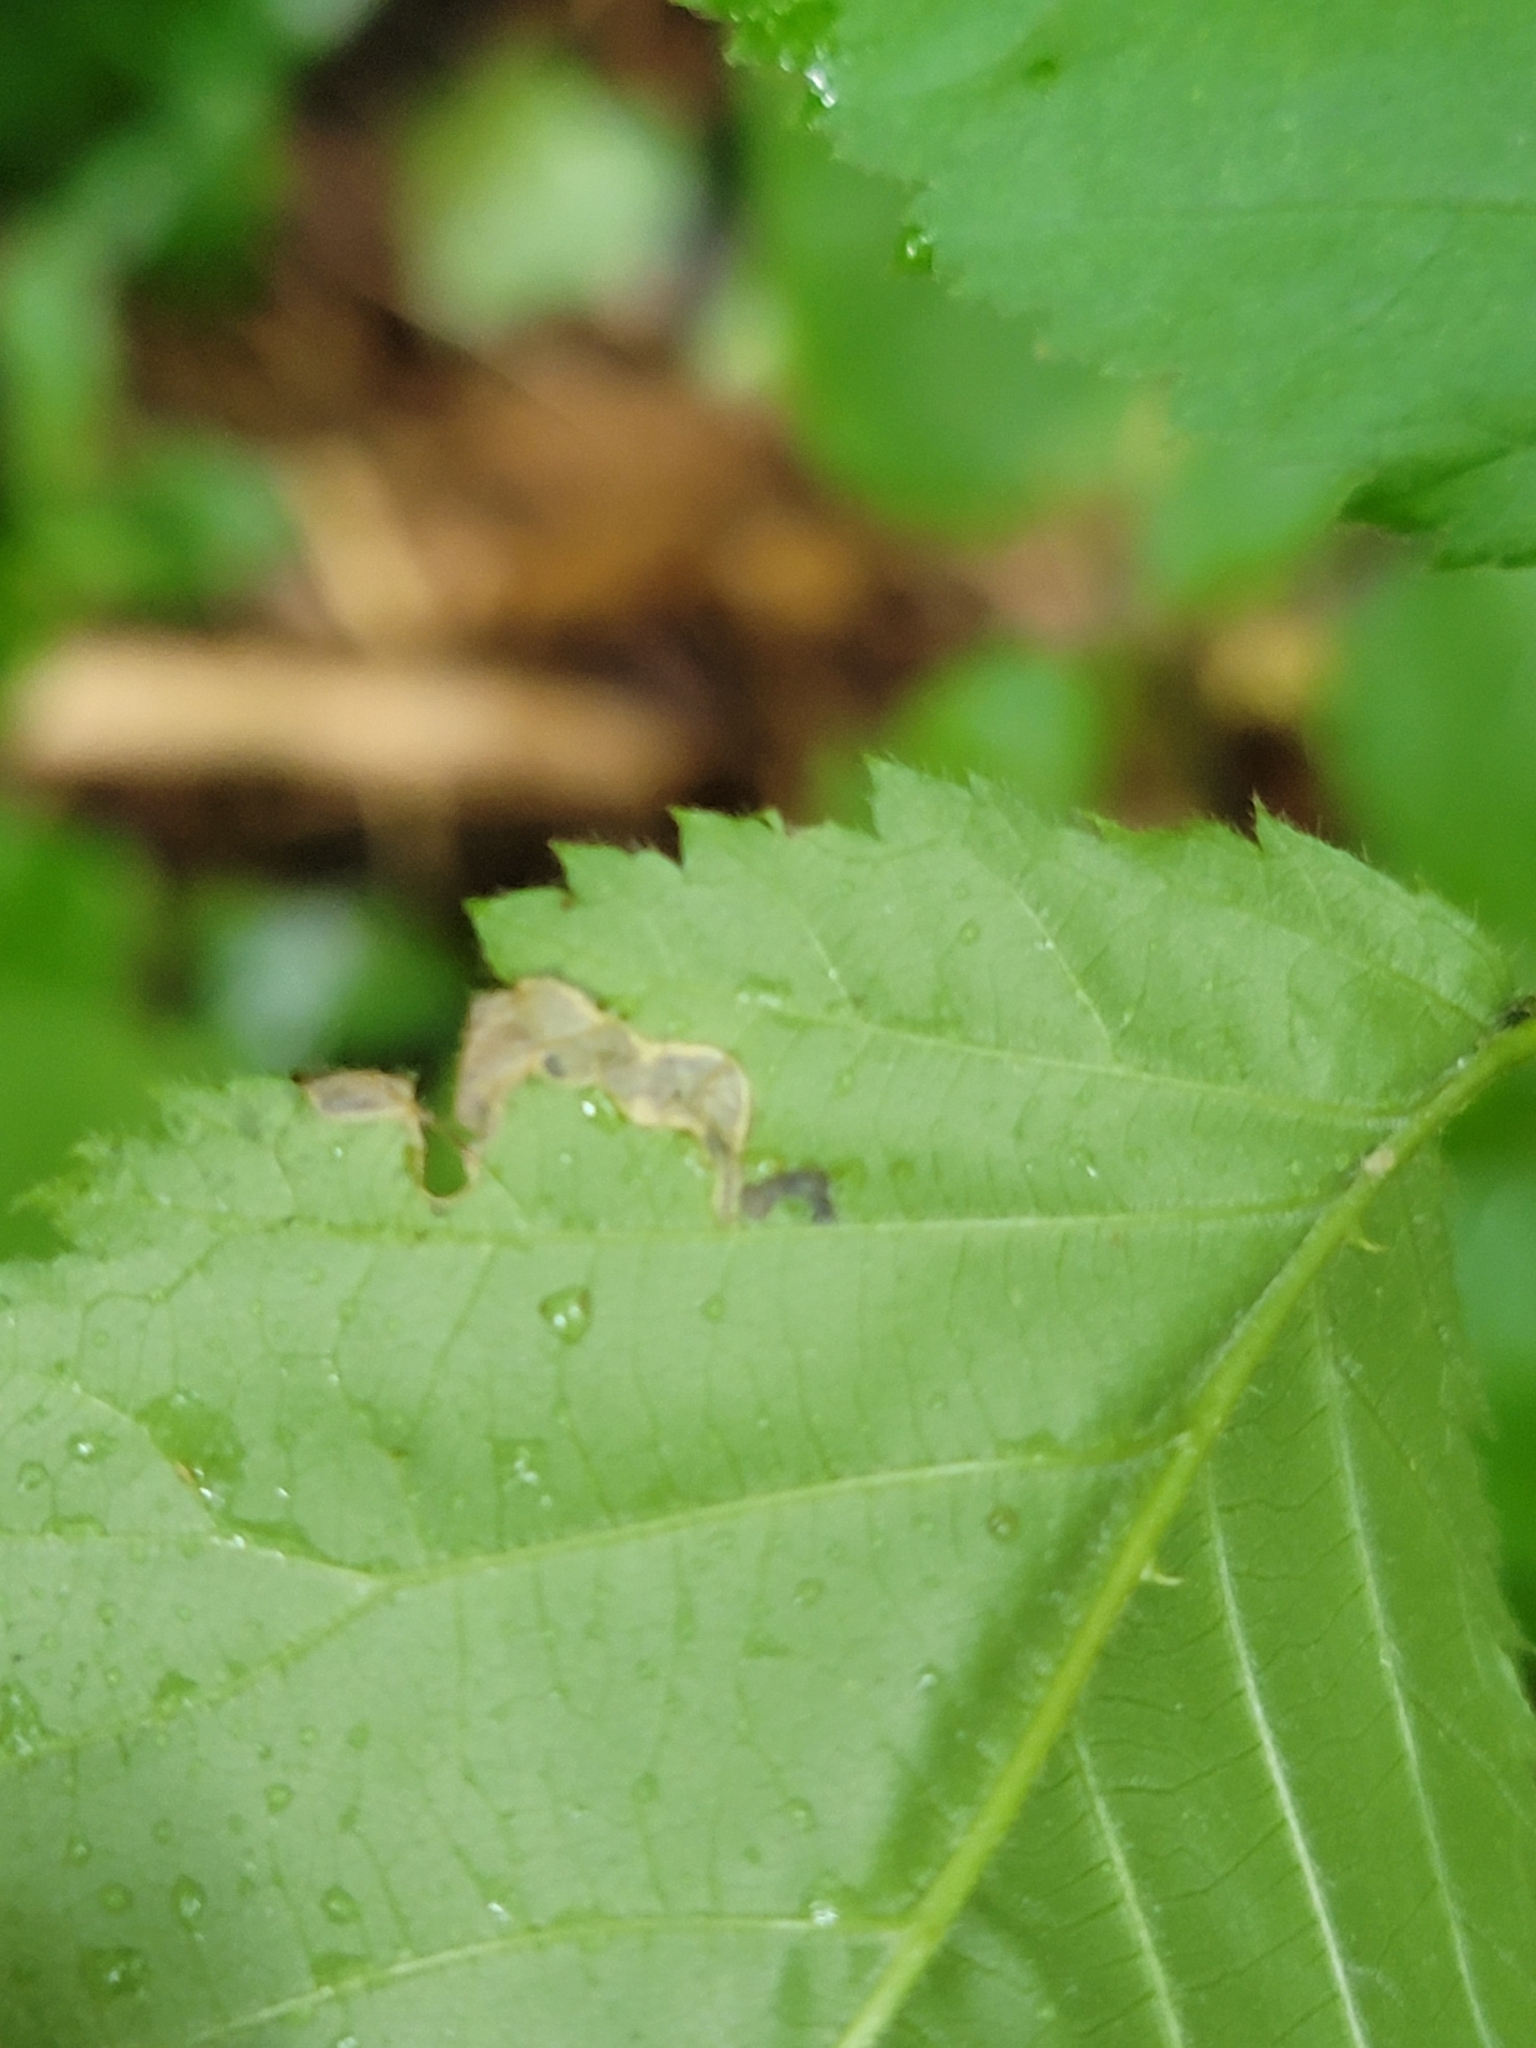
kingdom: Animalia
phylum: Arthropoda
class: Insecta
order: Hymenoptera
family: Tenthredinidae
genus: Metallus
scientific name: Metallus rohweri
